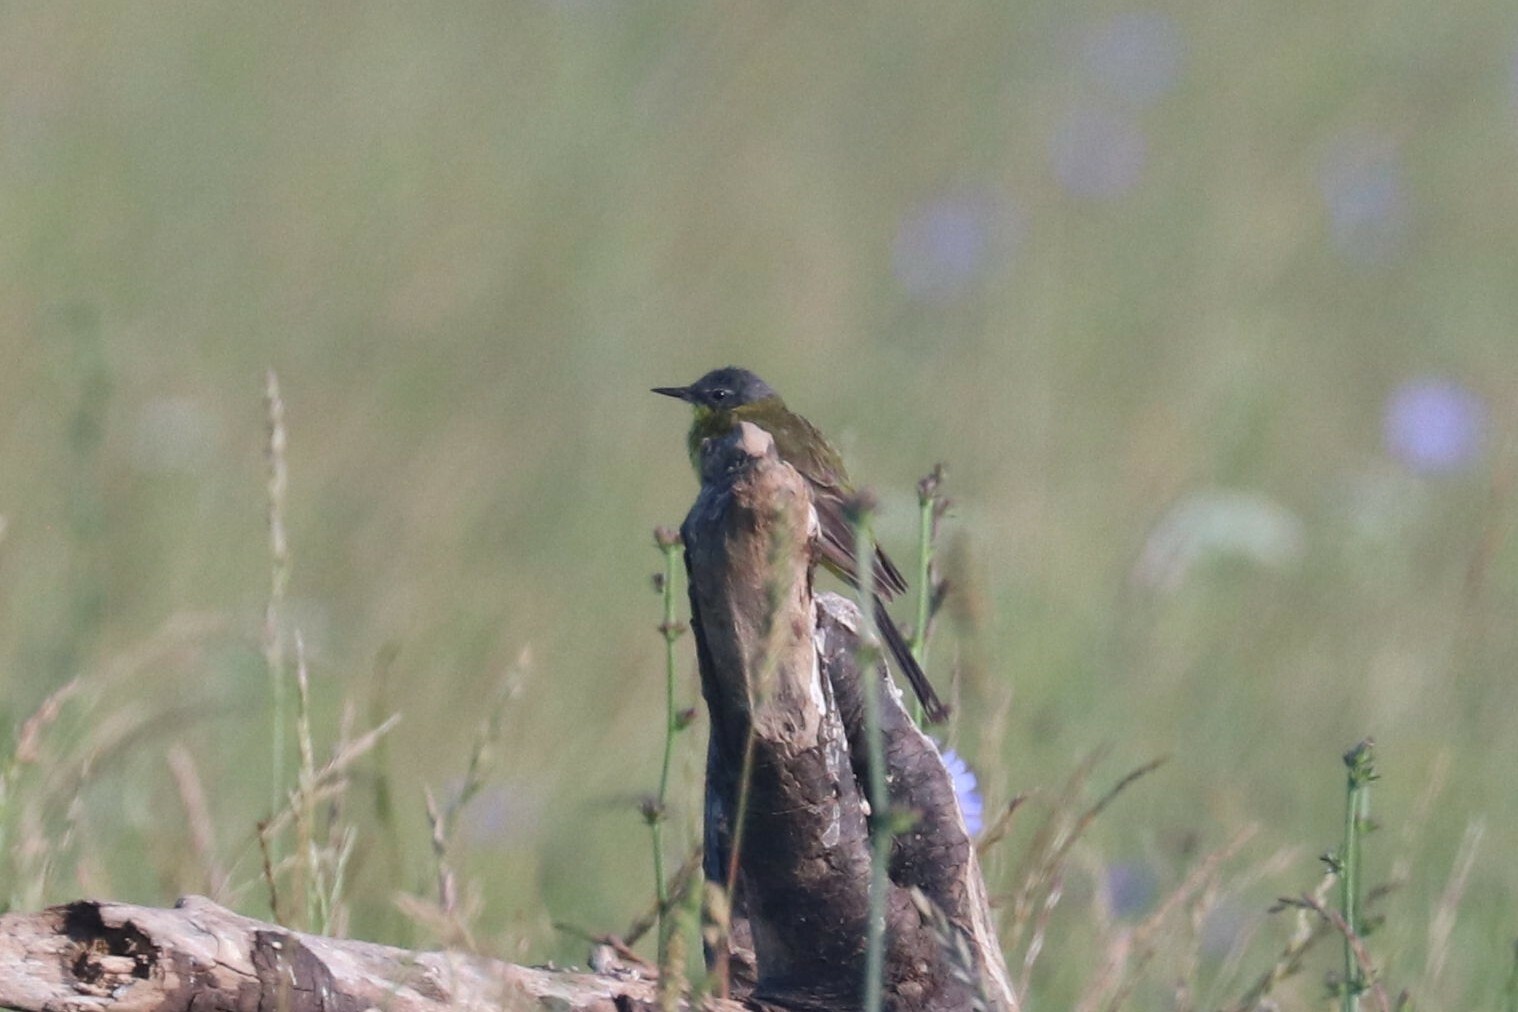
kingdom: Animalia
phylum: Chordata
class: Aves
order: Passeriformes
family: Motacillidae
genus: Motacilla
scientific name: Motacilla flava
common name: Western yellow wagtail
